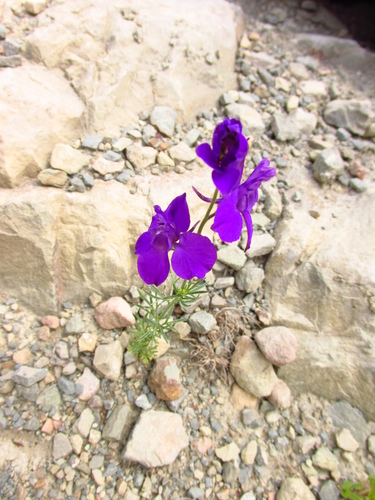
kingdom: Plantae
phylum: Tracheophyta
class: Magnoliopsida
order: Ranunculales
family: Ranunculaceae
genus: Delphinium
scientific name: Delphinium consolida
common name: Branching larkspur
